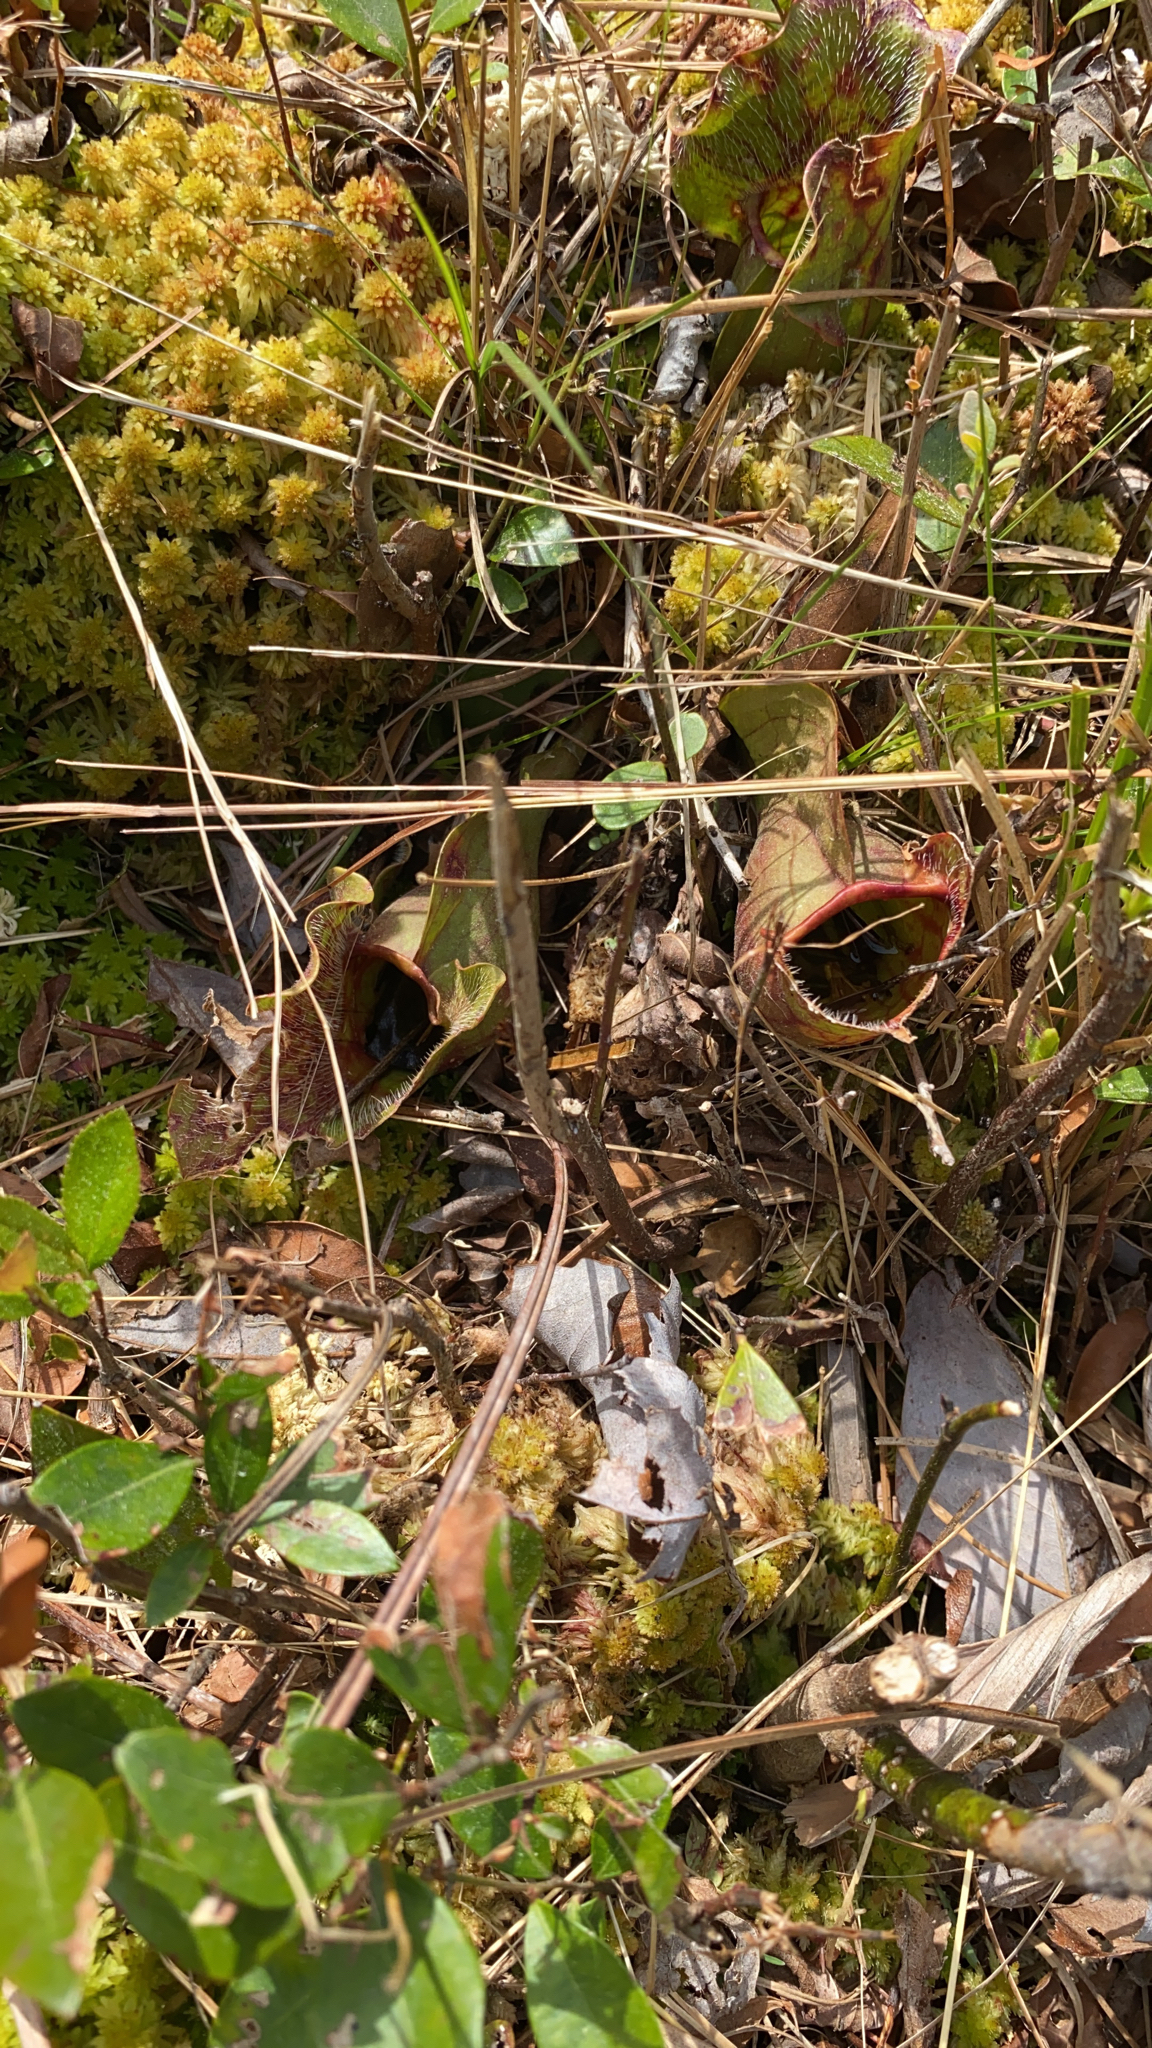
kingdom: Plantae
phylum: Tracheophyta
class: Magnoliopsida
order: Ericales
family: Sarraceniaceae
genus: Sarracenia
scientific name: Sarracenia purpurea
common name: Pitcherplant
